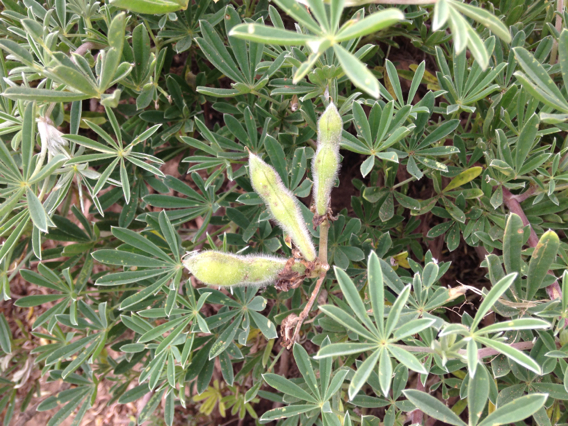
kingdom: Plantae
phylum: Tracheophyta
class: Magnoliopsida
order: Fabales
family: Fabaceae
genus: Lupinus
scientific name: Lupinus arboreus
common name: Yellow bush lupine
